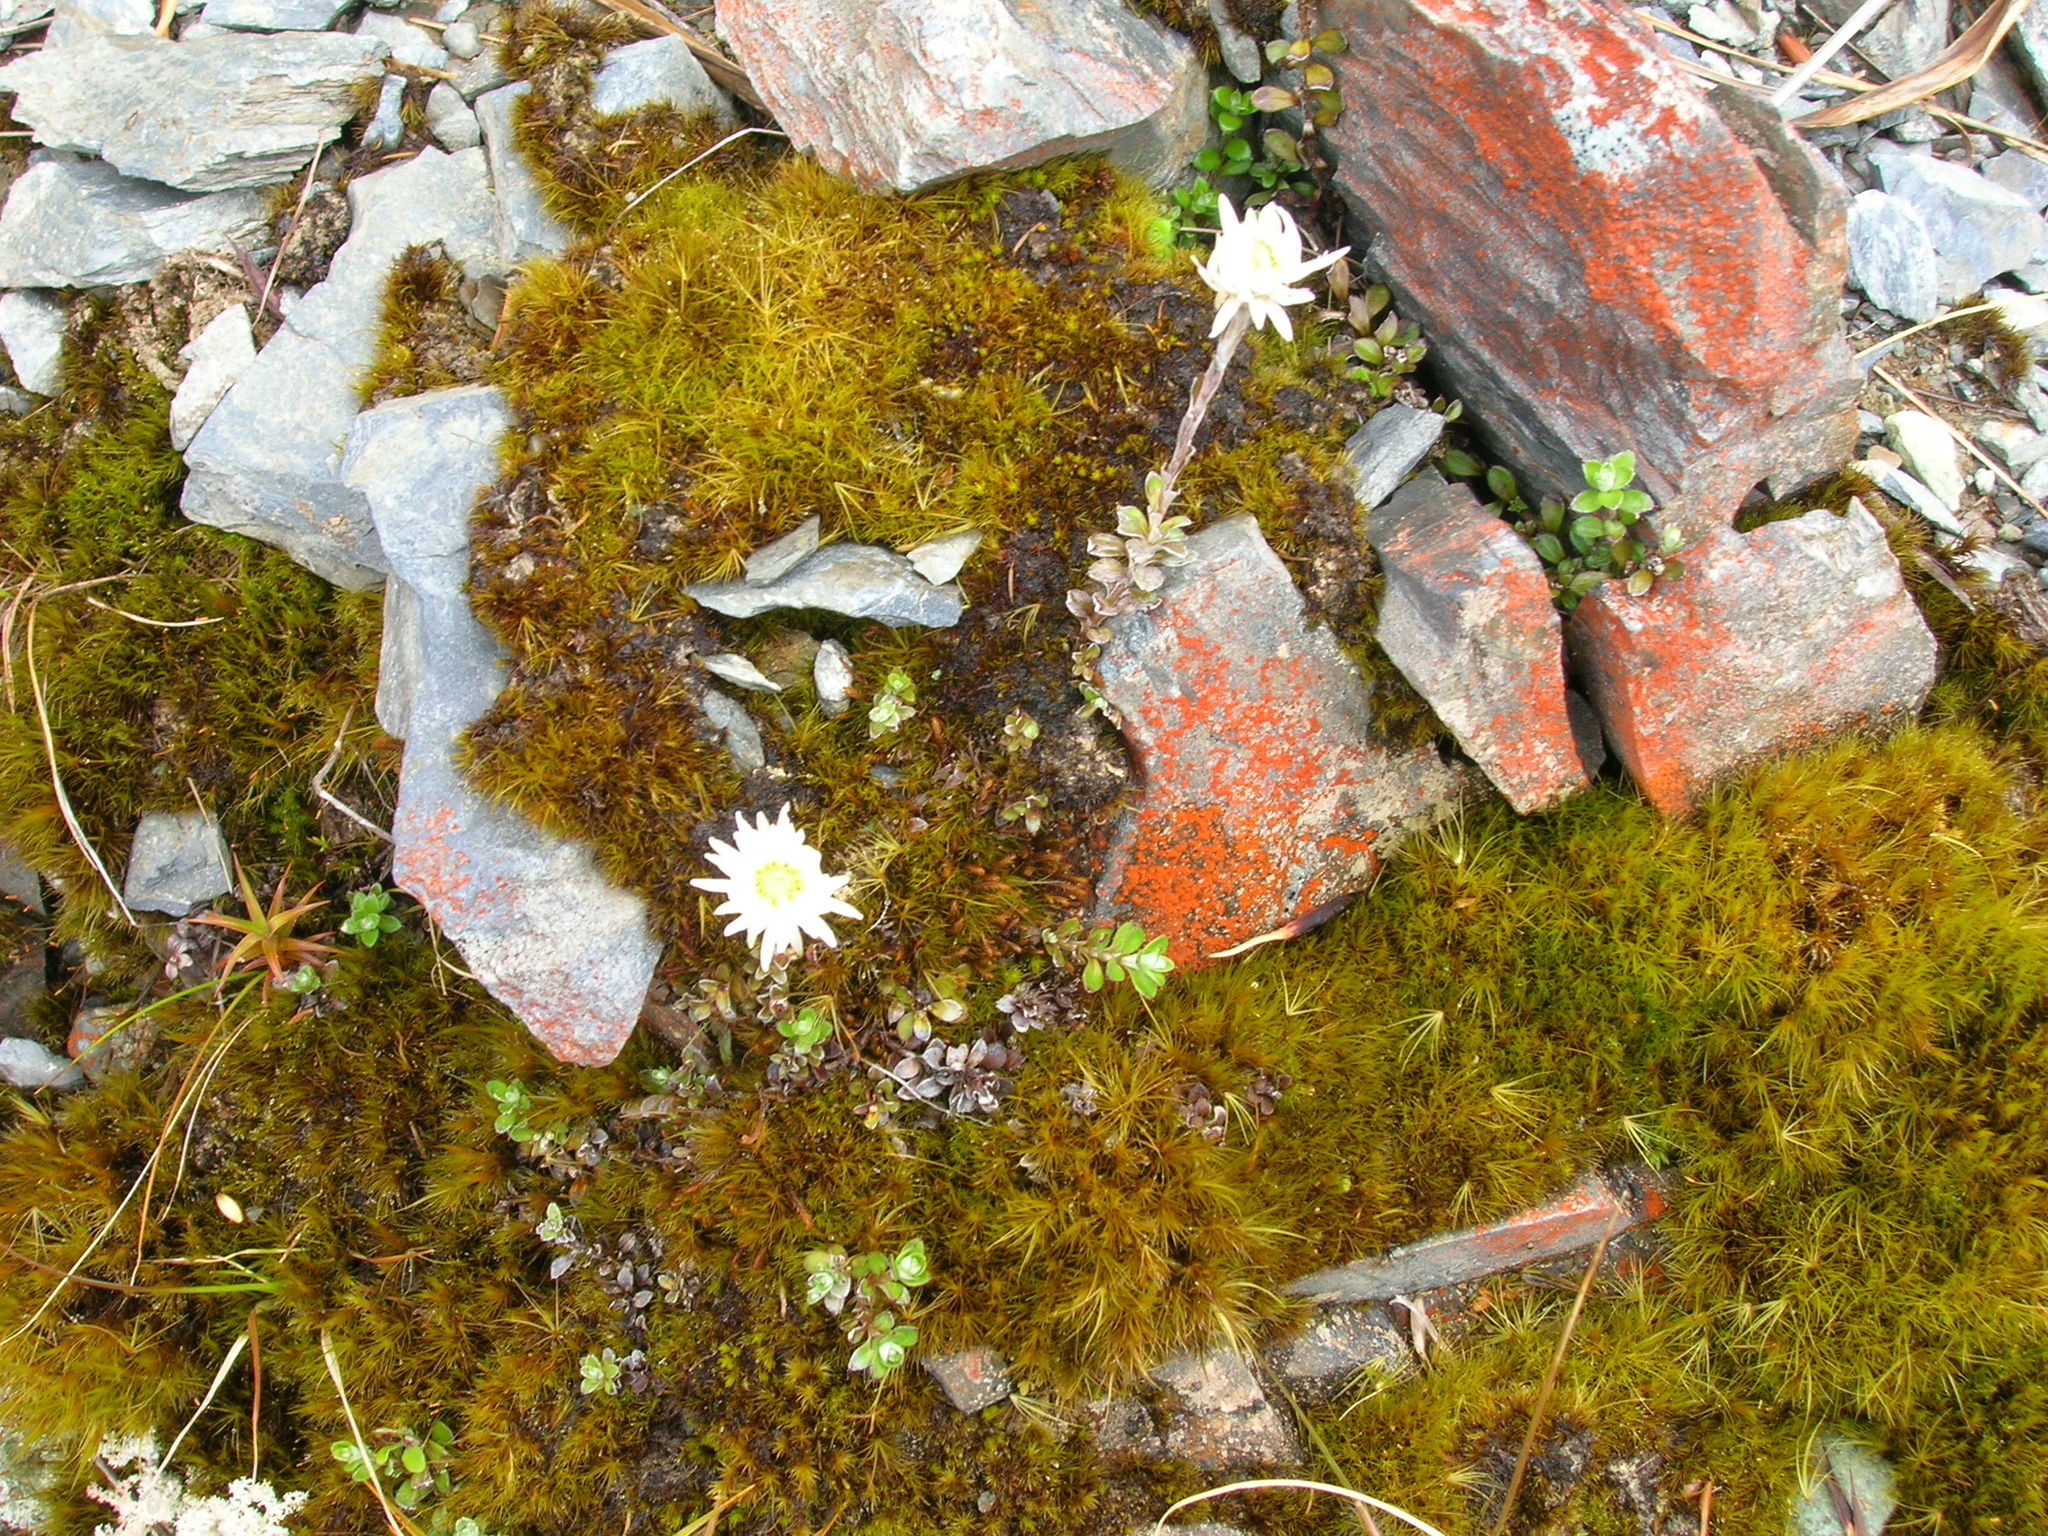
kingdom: Plantae
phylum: Tracheophyta
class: Magnoliopsida
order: Asterales
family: Asteraceae
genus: Anaphalioides
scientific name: Anaphalioides bellidioides
